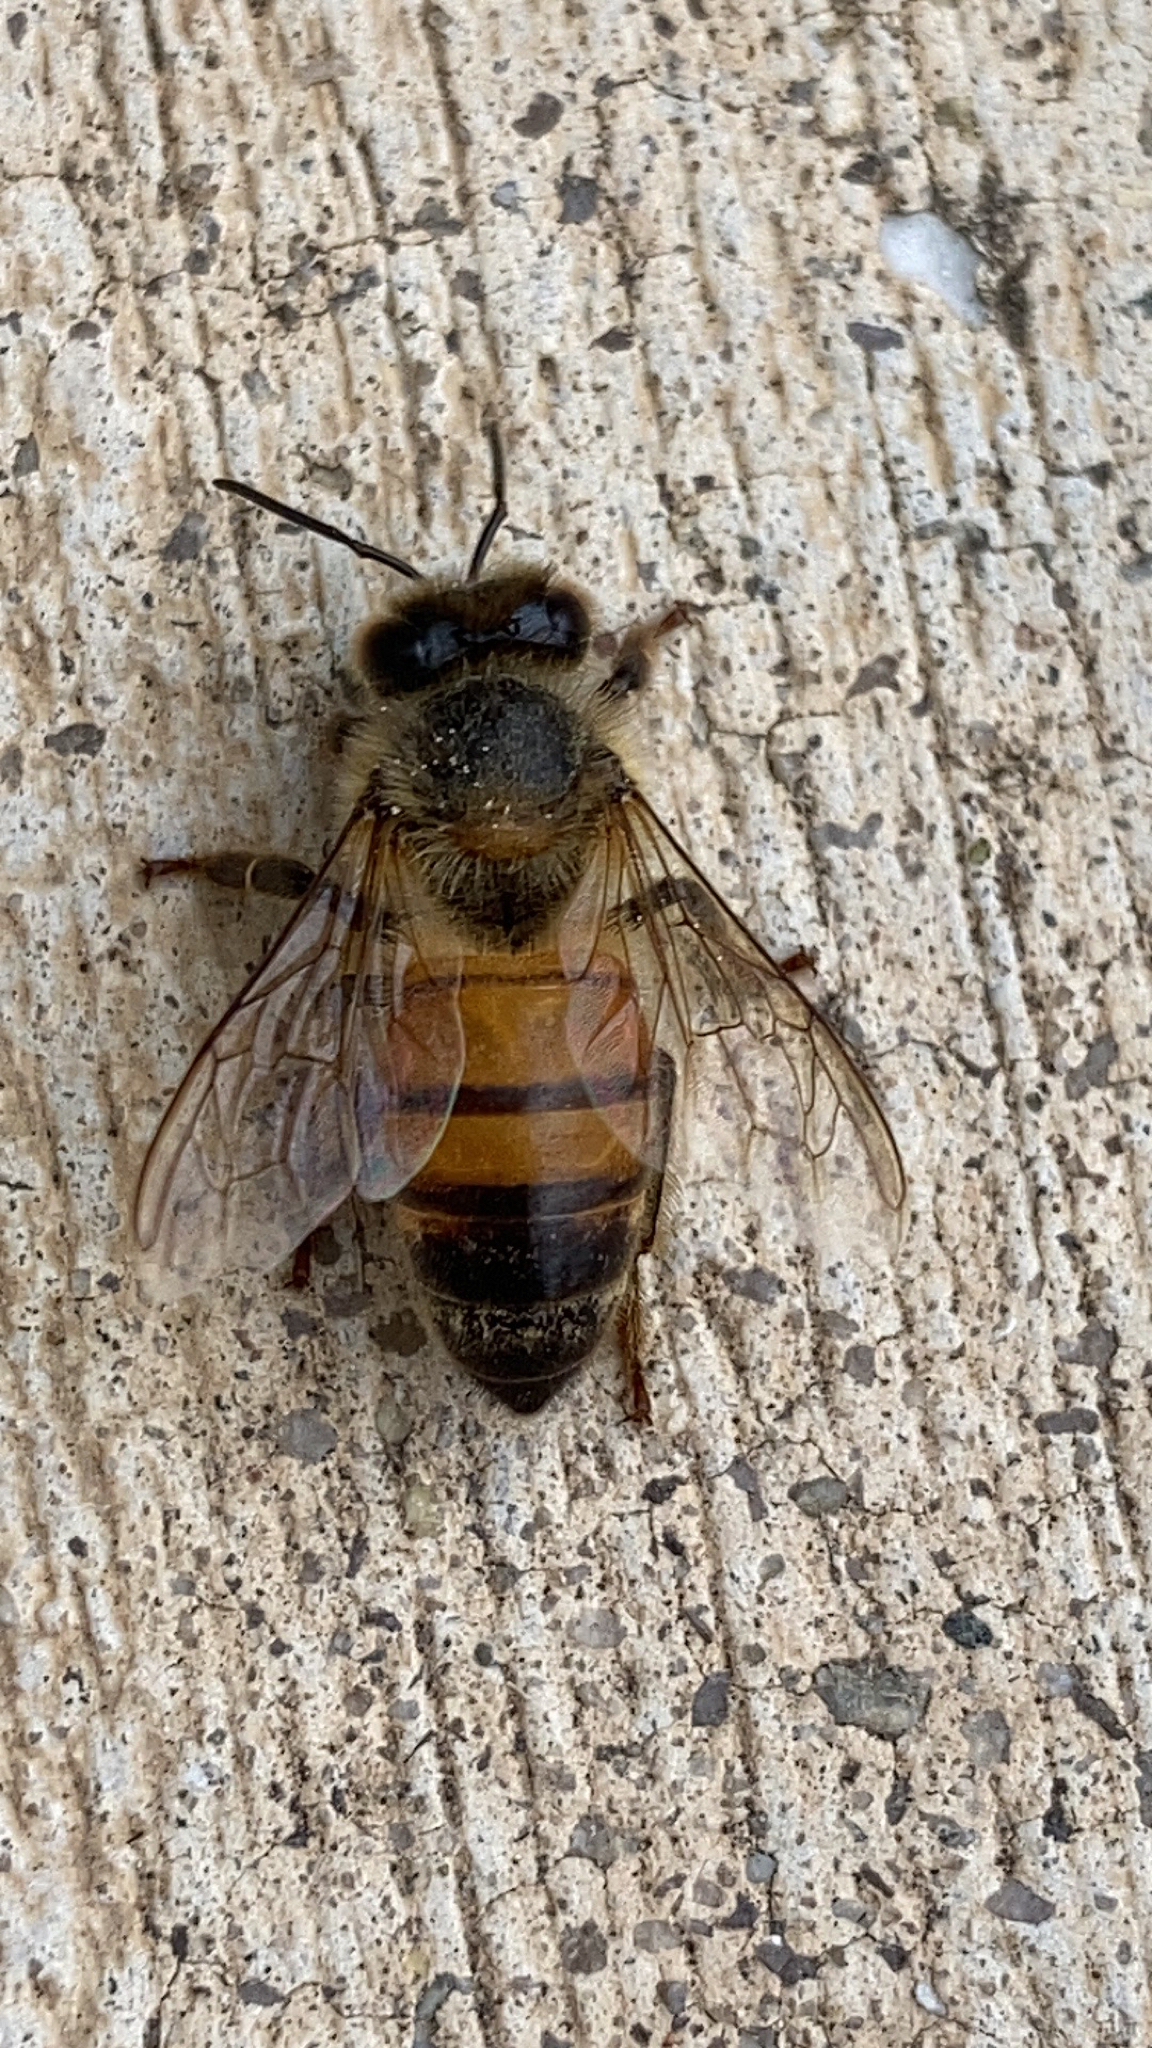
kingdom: Animalia
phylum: Arthropoda
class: Insecta
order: Hymenoptera
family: Apidae
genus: Apis
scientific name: Apis mellifera
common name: Honey bee
